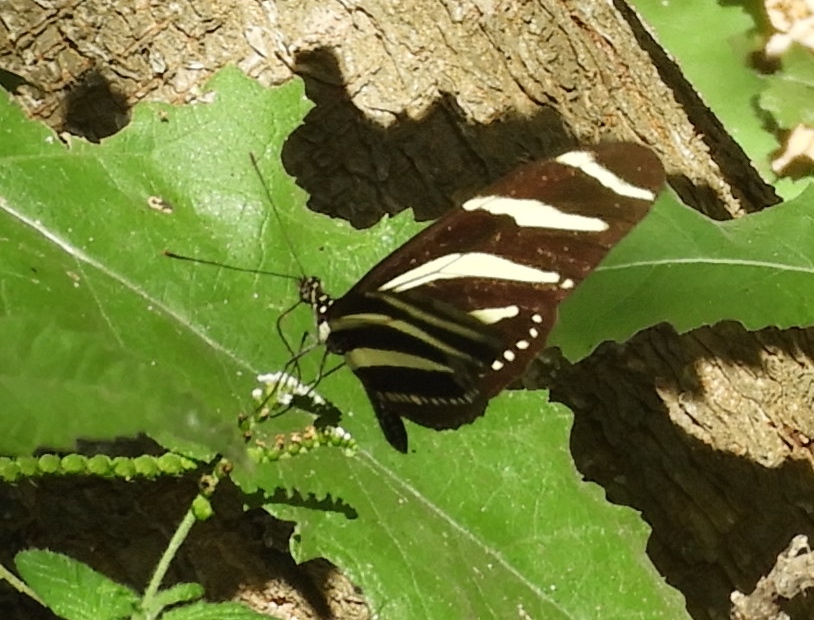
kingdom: Animalia
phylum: Arthropoda
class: Insecta
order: Lepidoptera
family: Nymphalidae
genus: Heliconius
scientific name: Heliconius charithonia
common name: Zebra long wing
